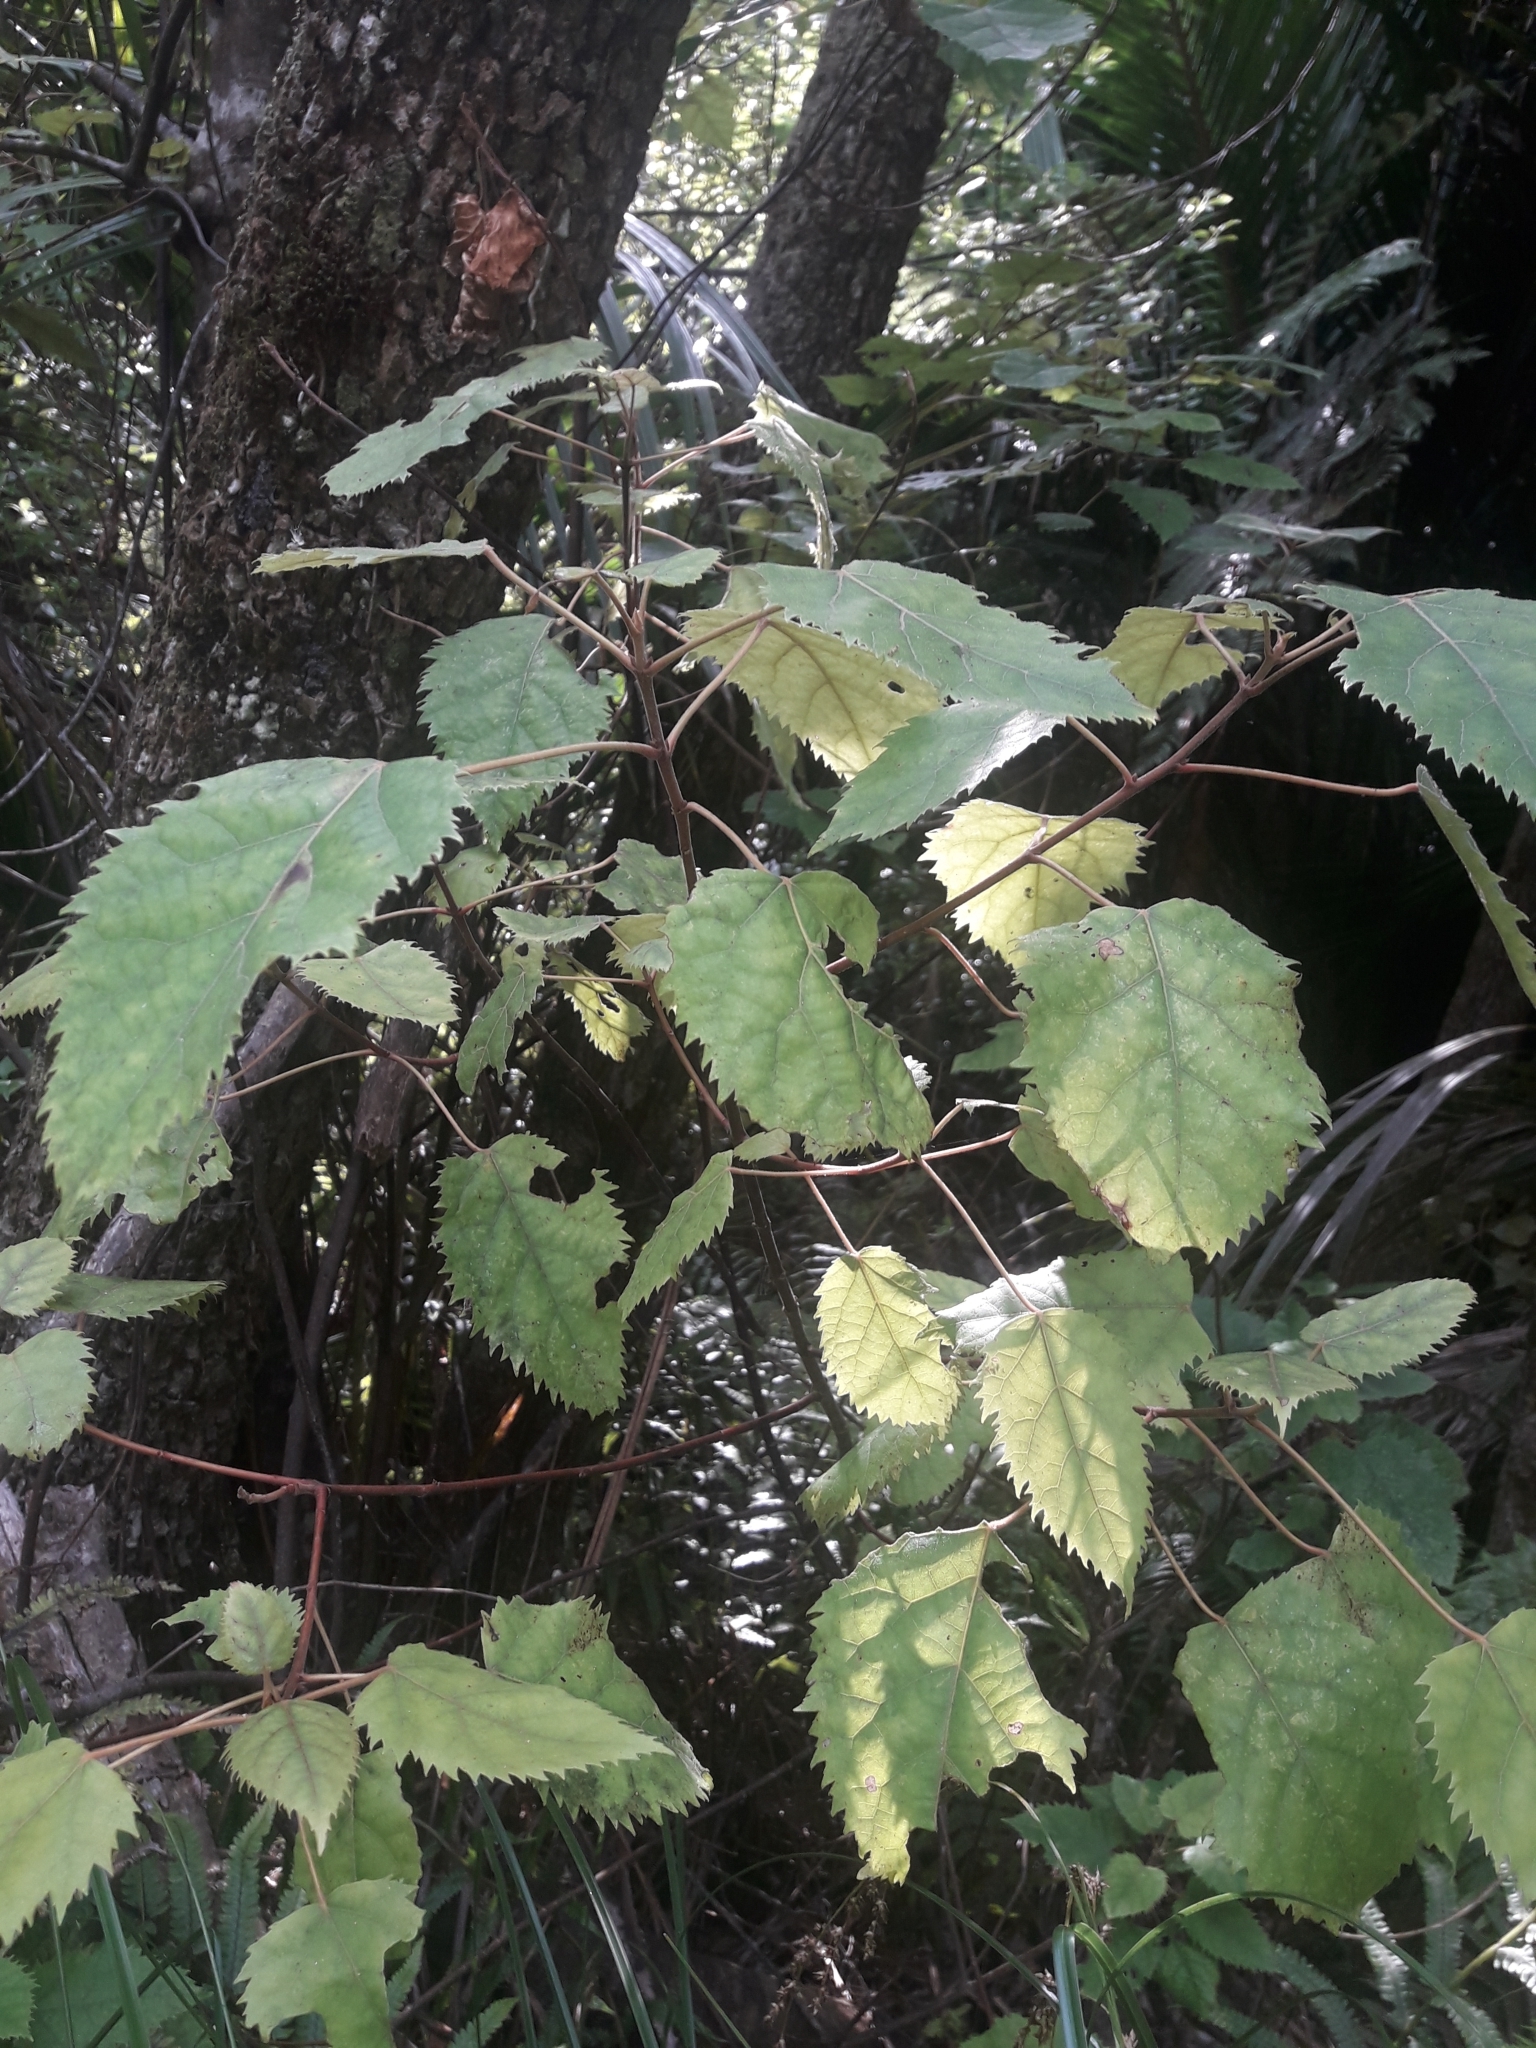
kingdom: Plantae
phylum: Tracheophyta
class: Magnoliopsida
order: Oxalidales
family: Elaeocarpaceae
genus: Aristotelia
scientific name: Aristotelia serrata
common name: New zealand wineberry
